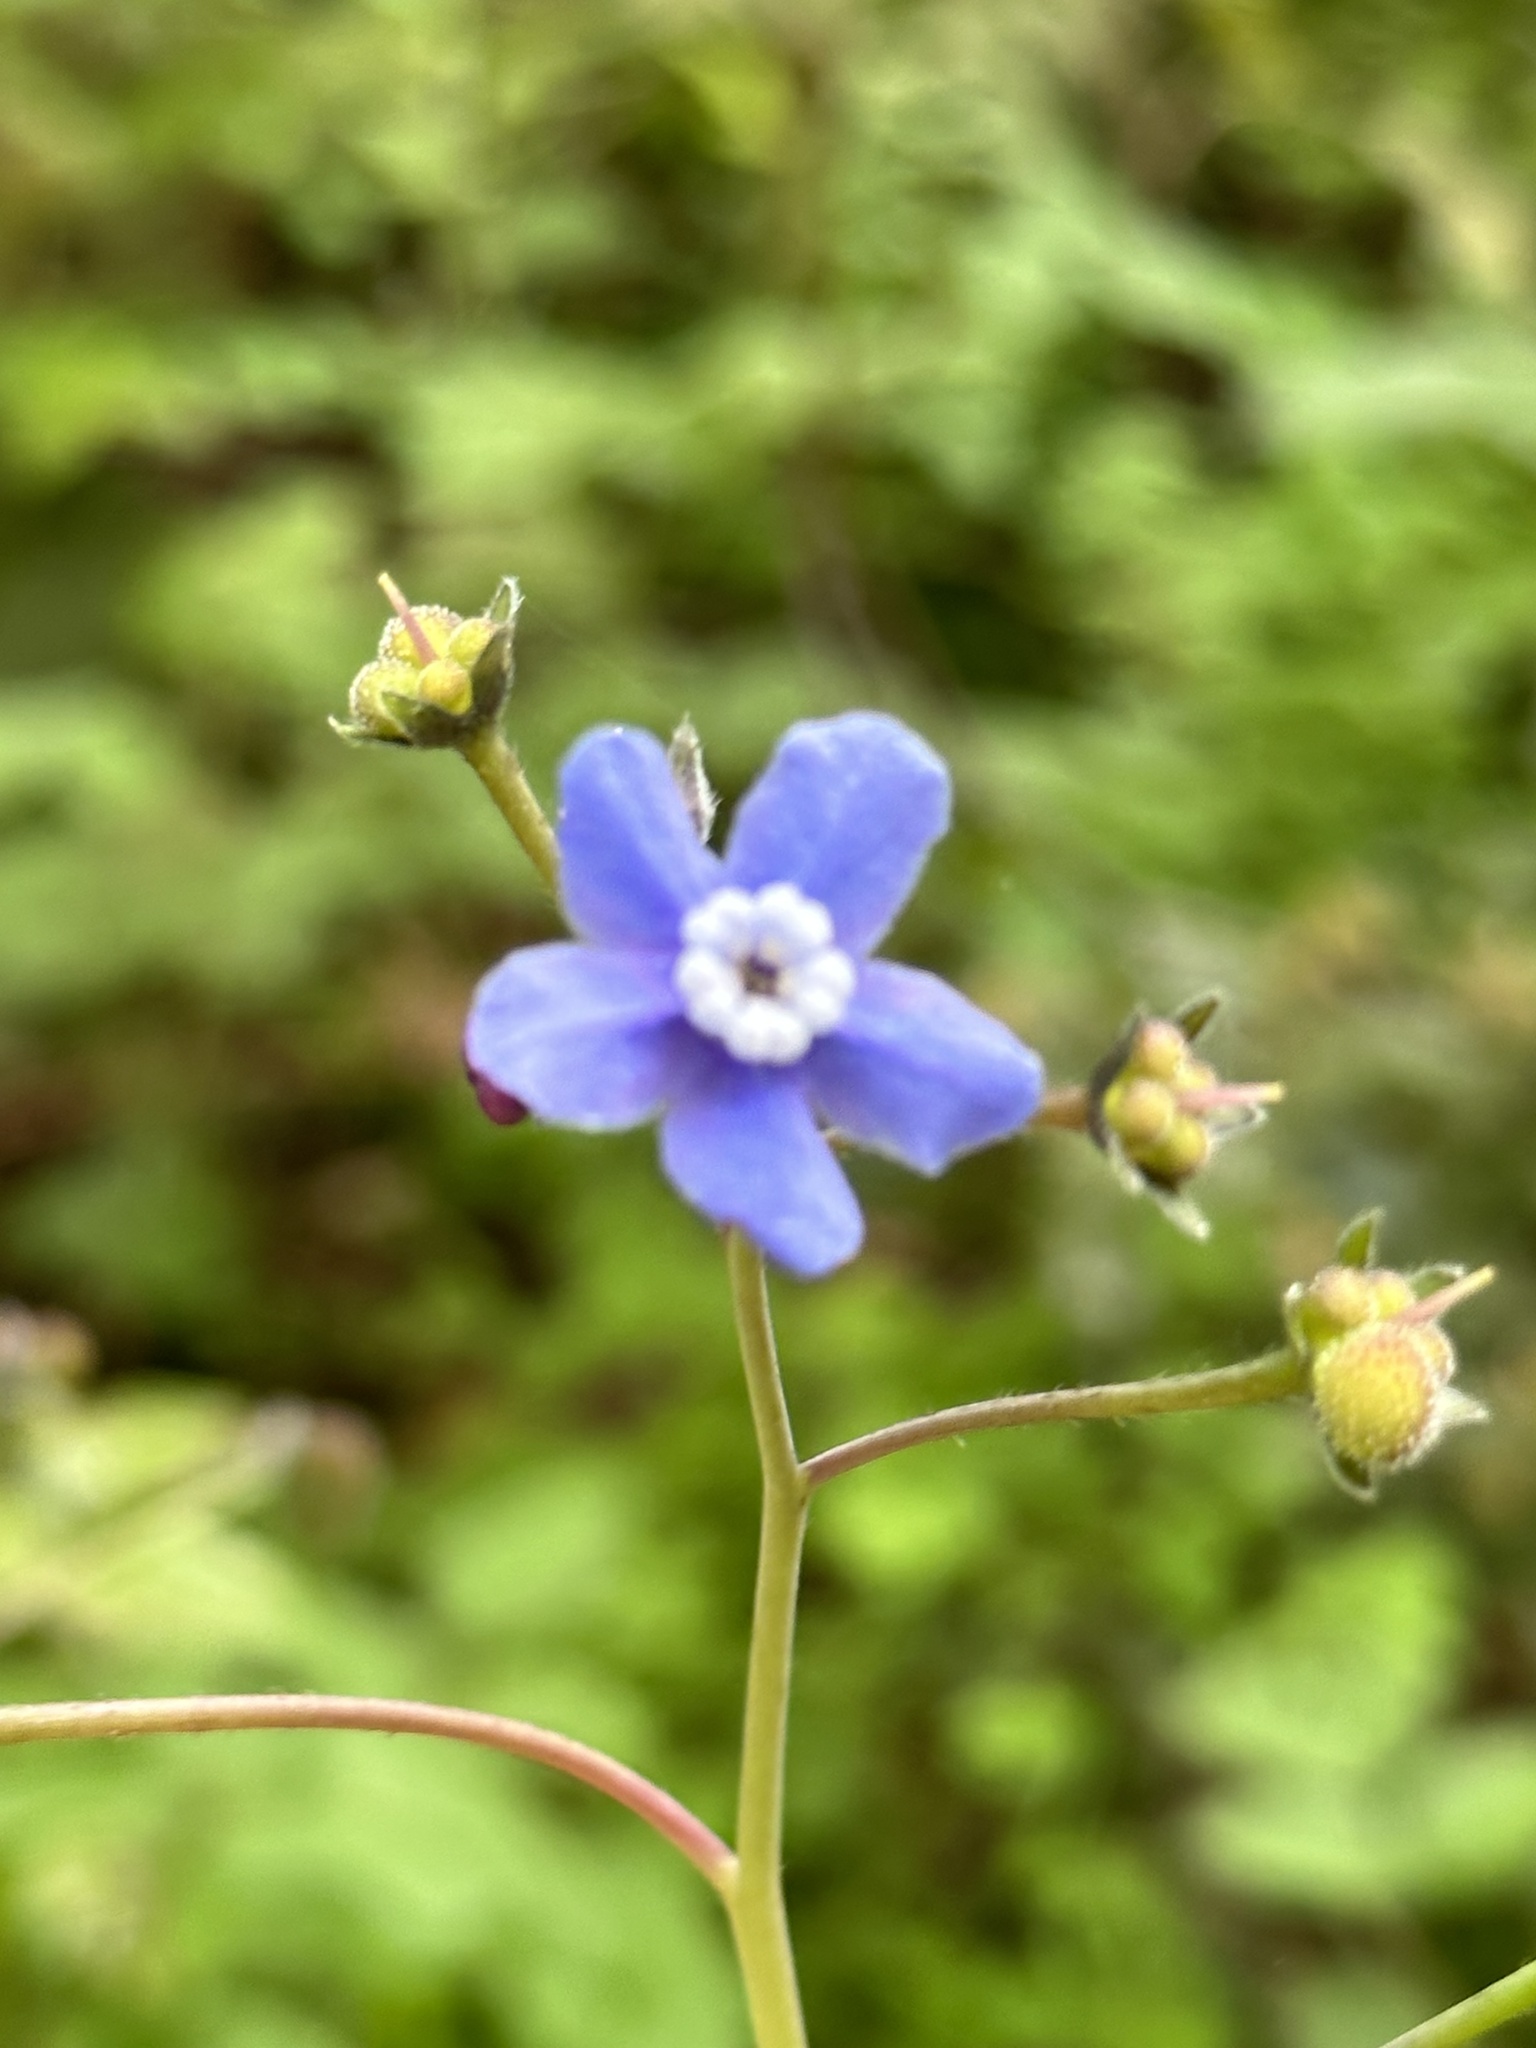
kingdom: Plantae
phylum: Tracheophyta
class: Magnoliopsida
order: Boraginales
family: Boraginaceae
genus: Adelinia
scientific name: Adelinia grande
